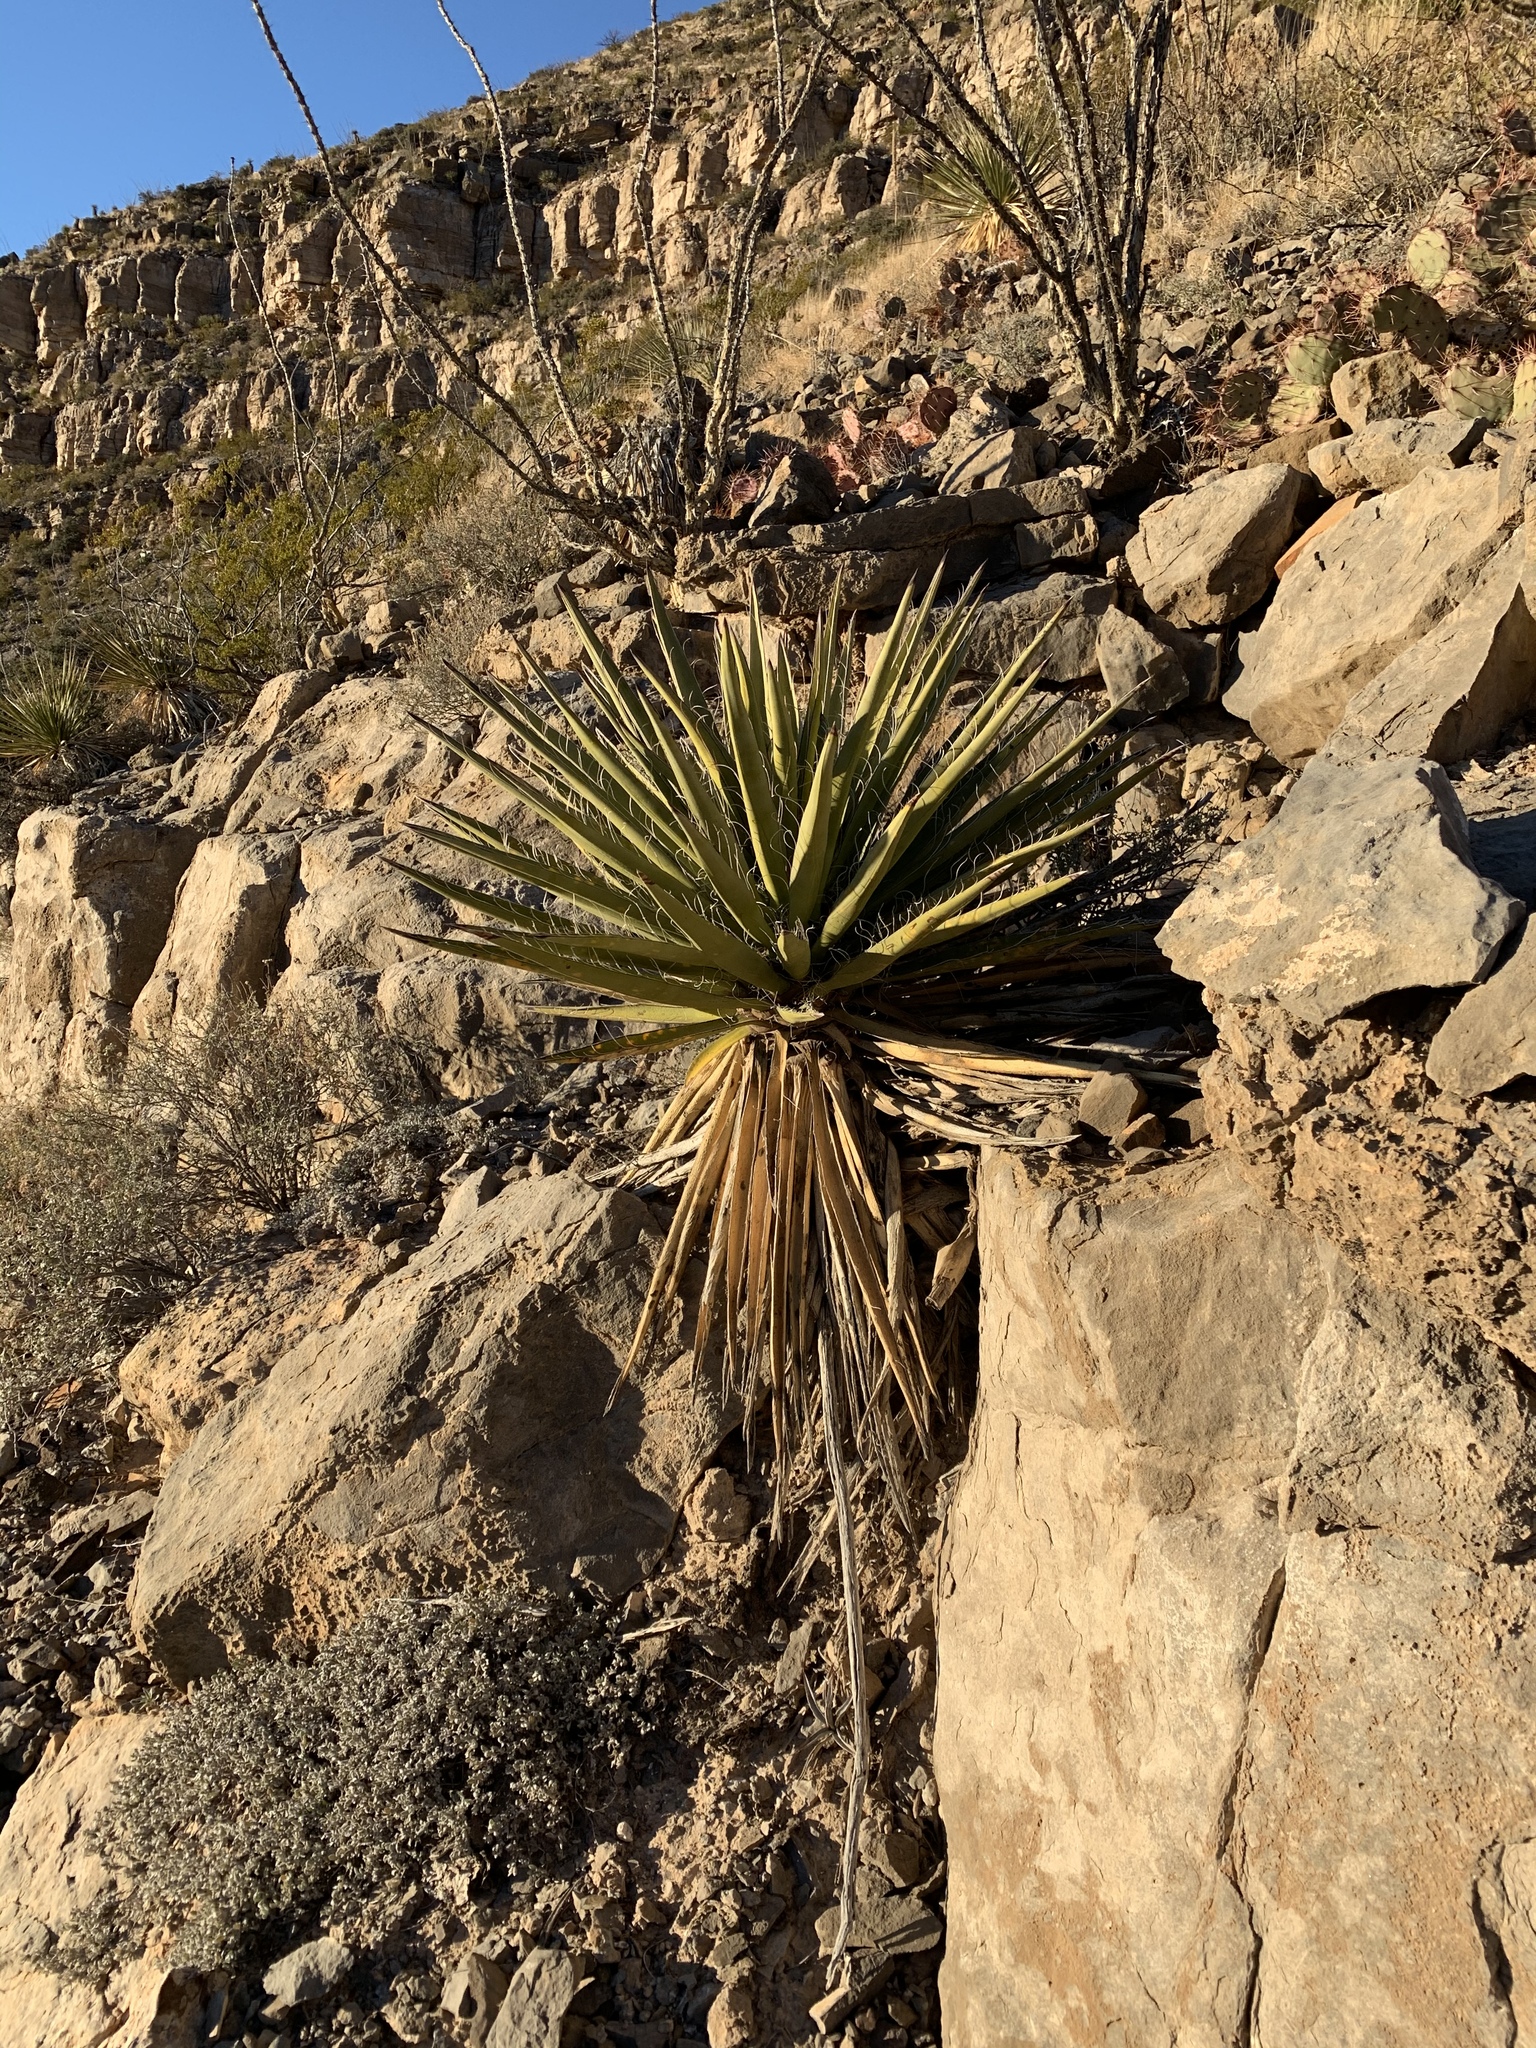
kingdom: Plantae
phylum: Tracheophyta
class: Liliopsida
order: Asparagales
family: Asparagaceae
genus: Yucca
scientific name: Yucca treculiana
